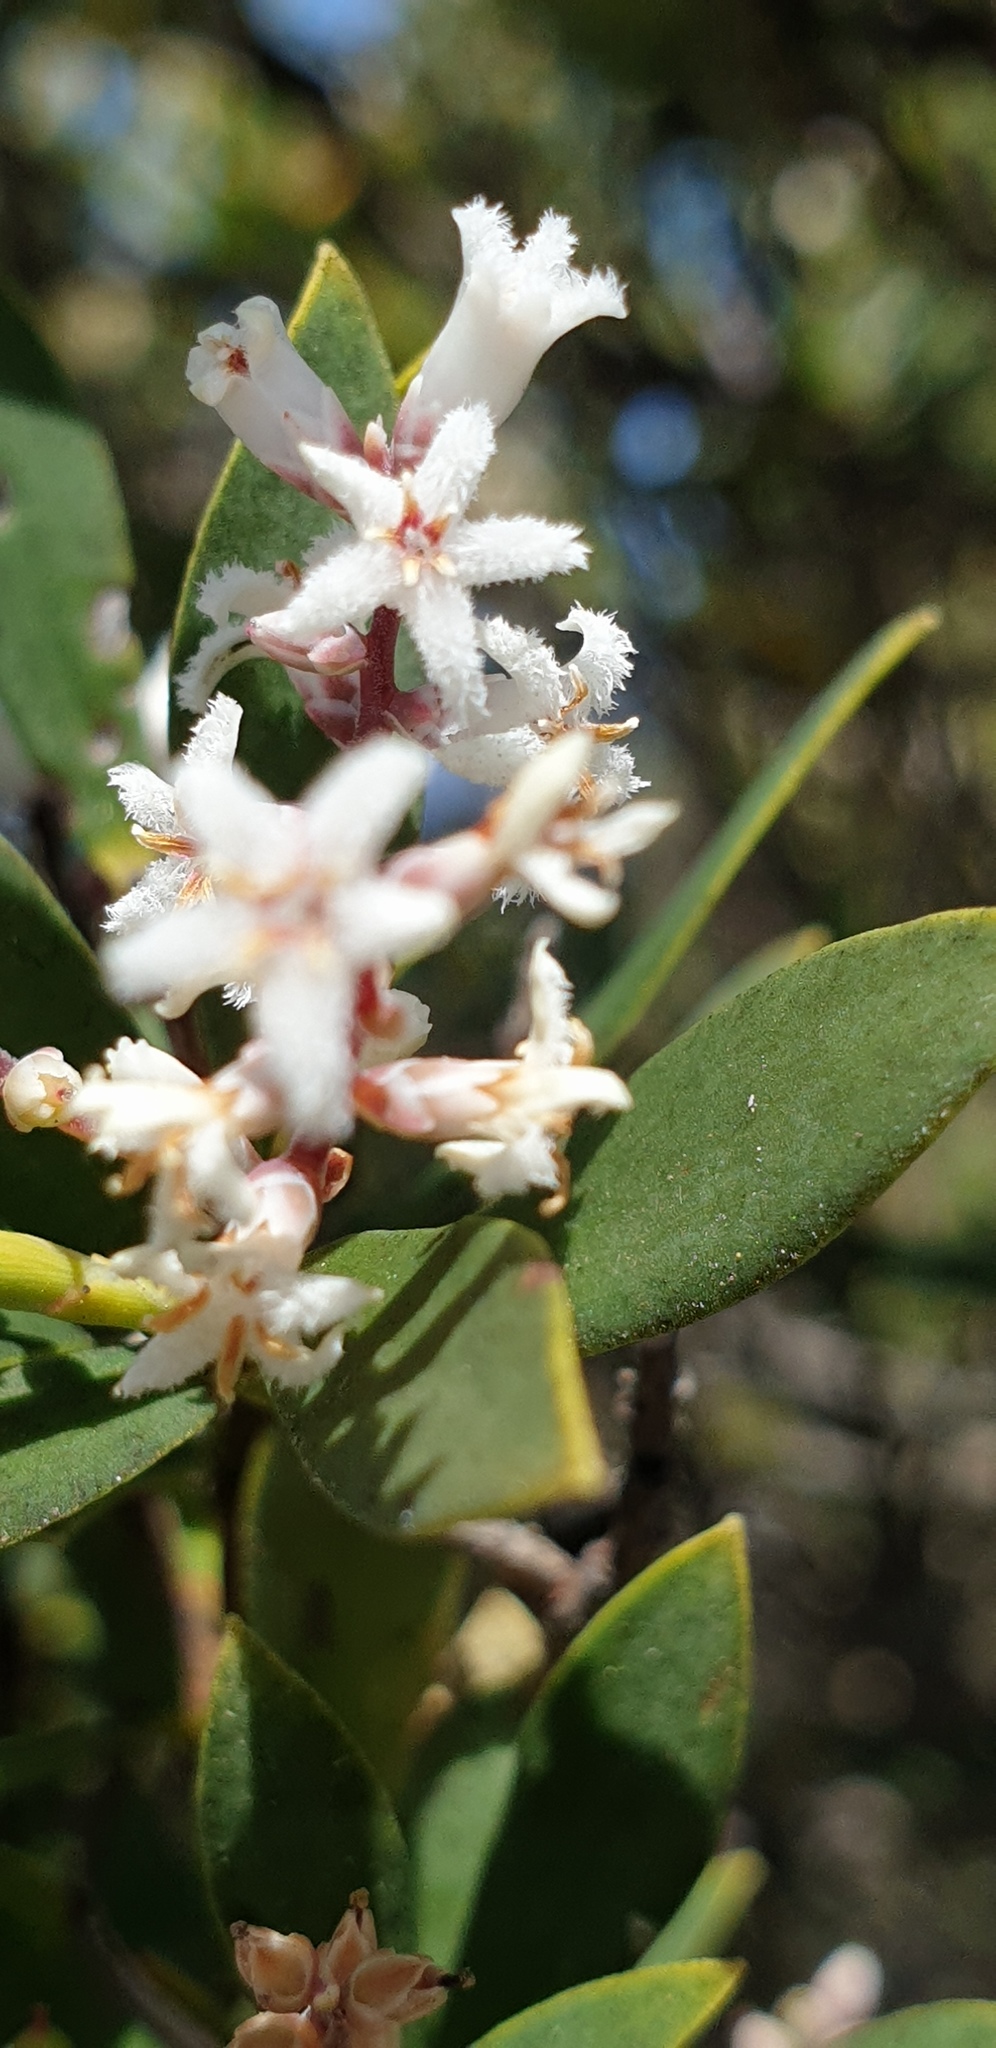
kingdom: Plantae
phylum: Tracheophyta
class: Magnoliopsida
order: Ericales
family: Ericaceae
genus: Leptecophylla
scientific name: Leptecophylla parvifolia
